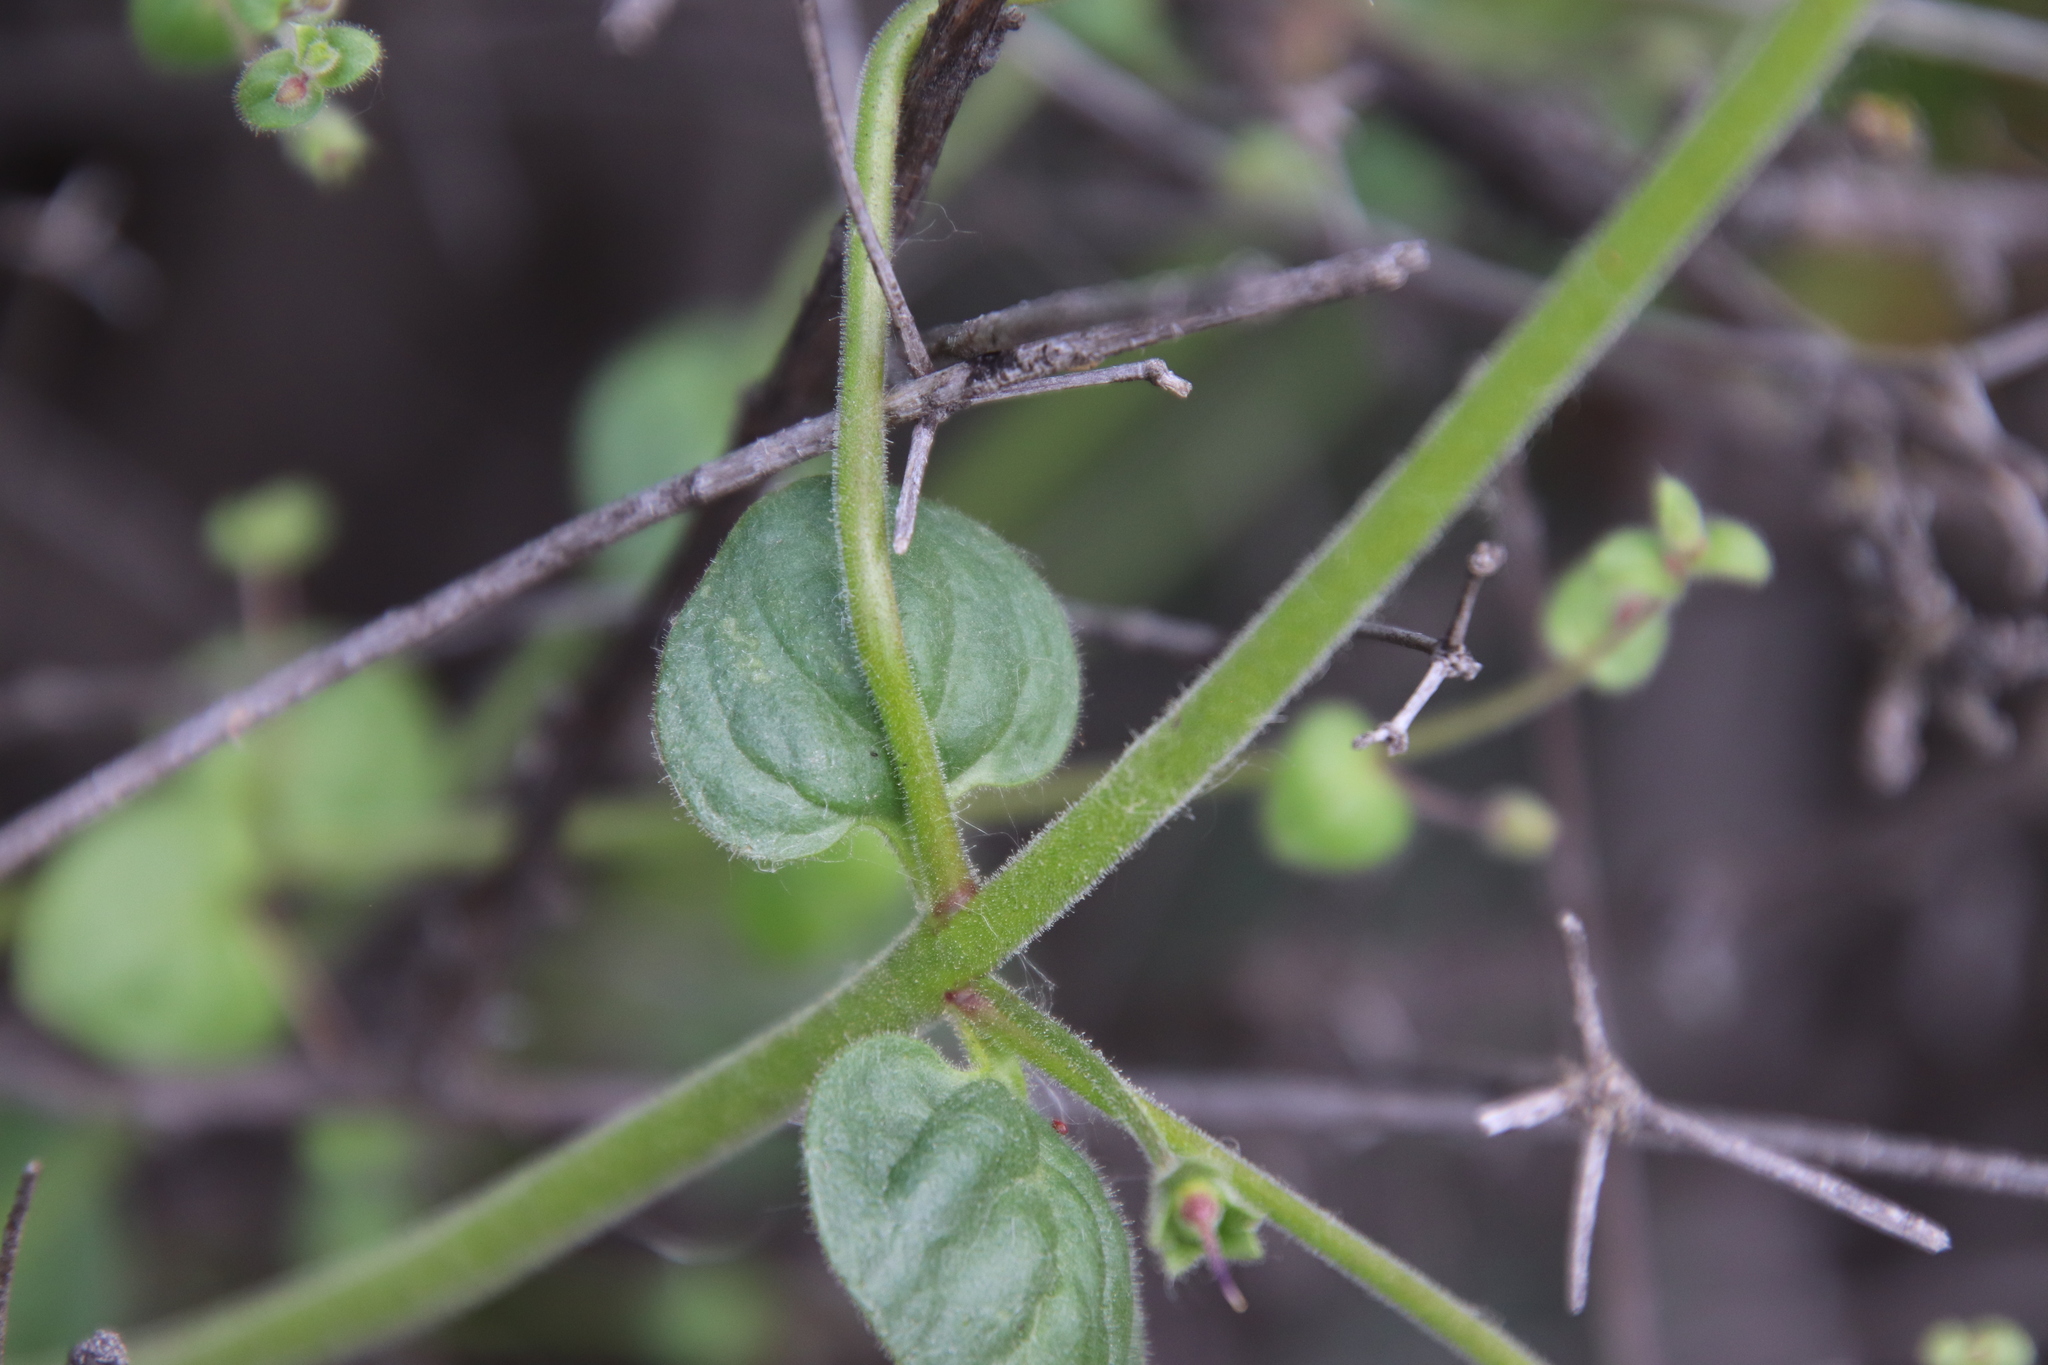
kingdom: Plantae
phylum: Tracheophyta
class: Magnoliopsida
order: Lamiales
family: Plantaginaceae
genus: Sairocarpus
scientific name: Sairocarpus nuttallianus
